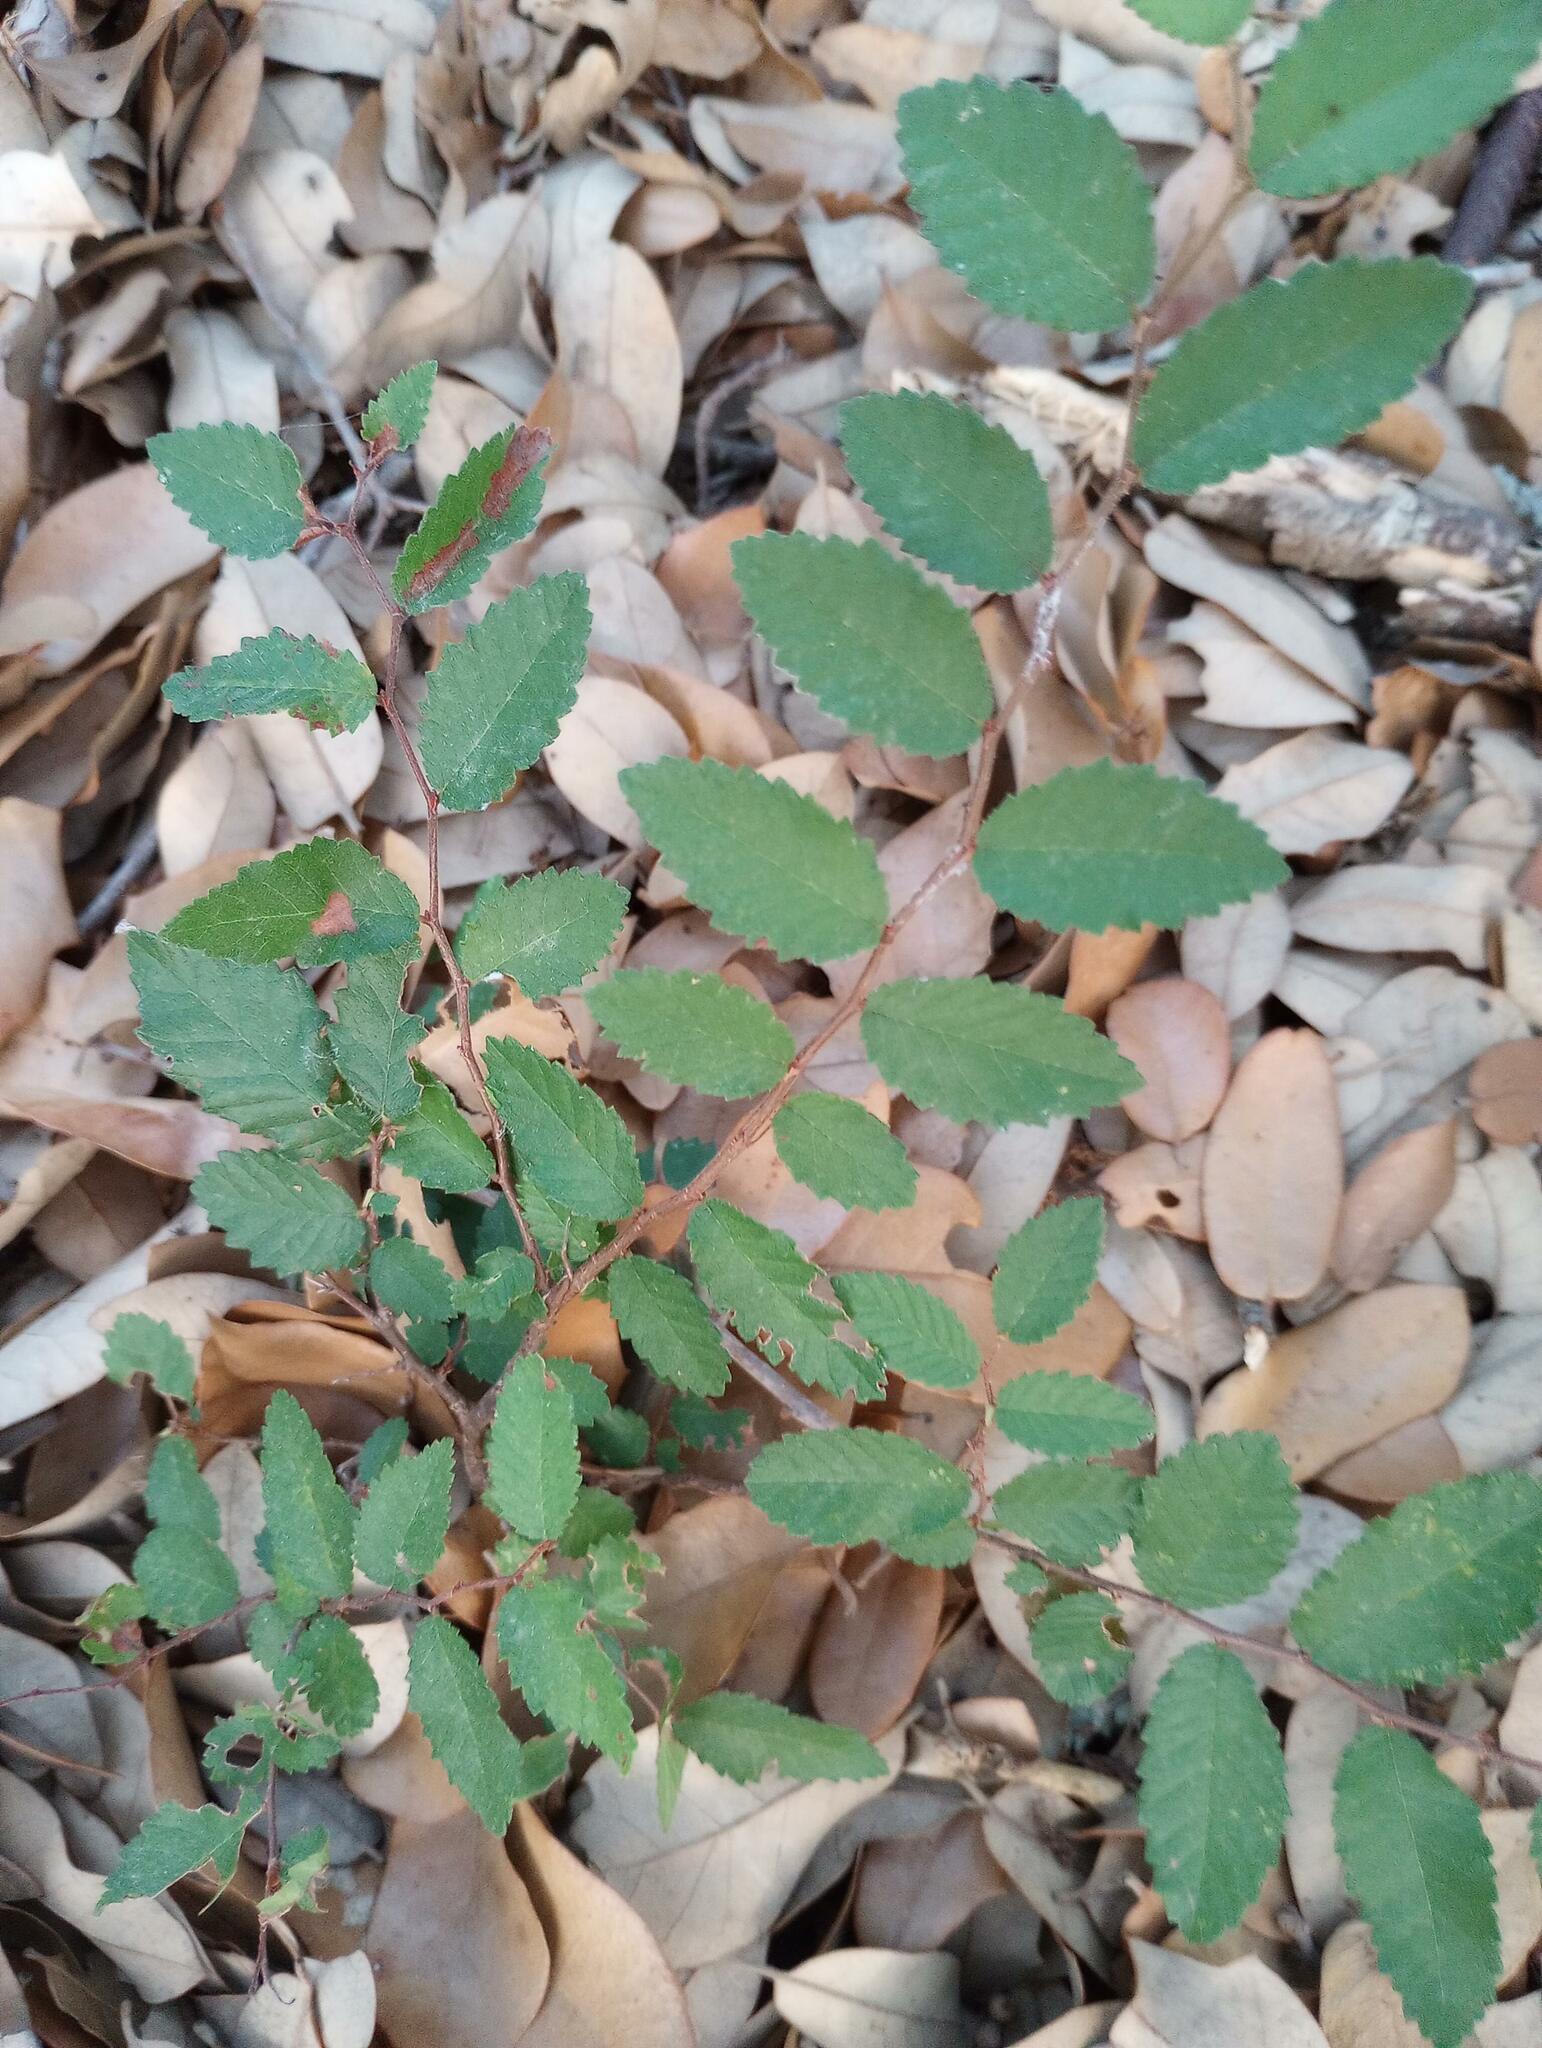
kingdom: Plantae
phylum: Tracheophyta
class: Magnoliopsida
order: Rosales
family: Ulmaceae
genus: Ulmus
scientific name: Ulmus crassifolia
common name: Basket elm
